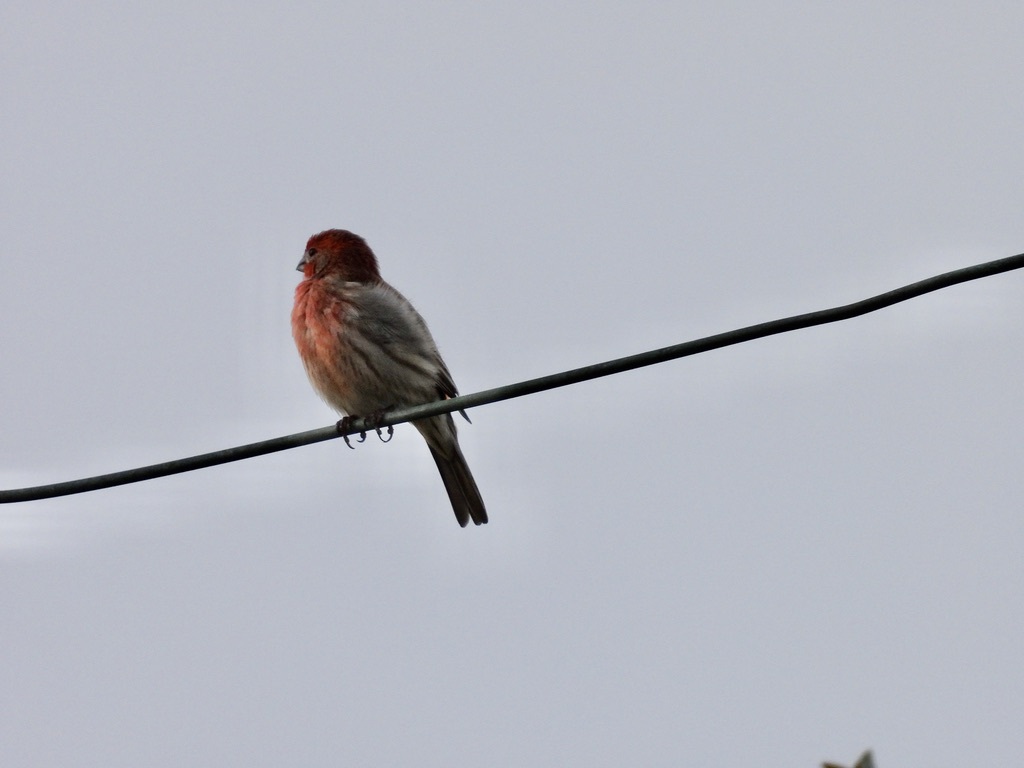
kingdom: Animalia
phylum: Chordata
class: Aves
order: Passeriformes
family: Fringillidae
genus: Haemorhous
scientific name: Haemorhous mexicanus
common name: House finch
